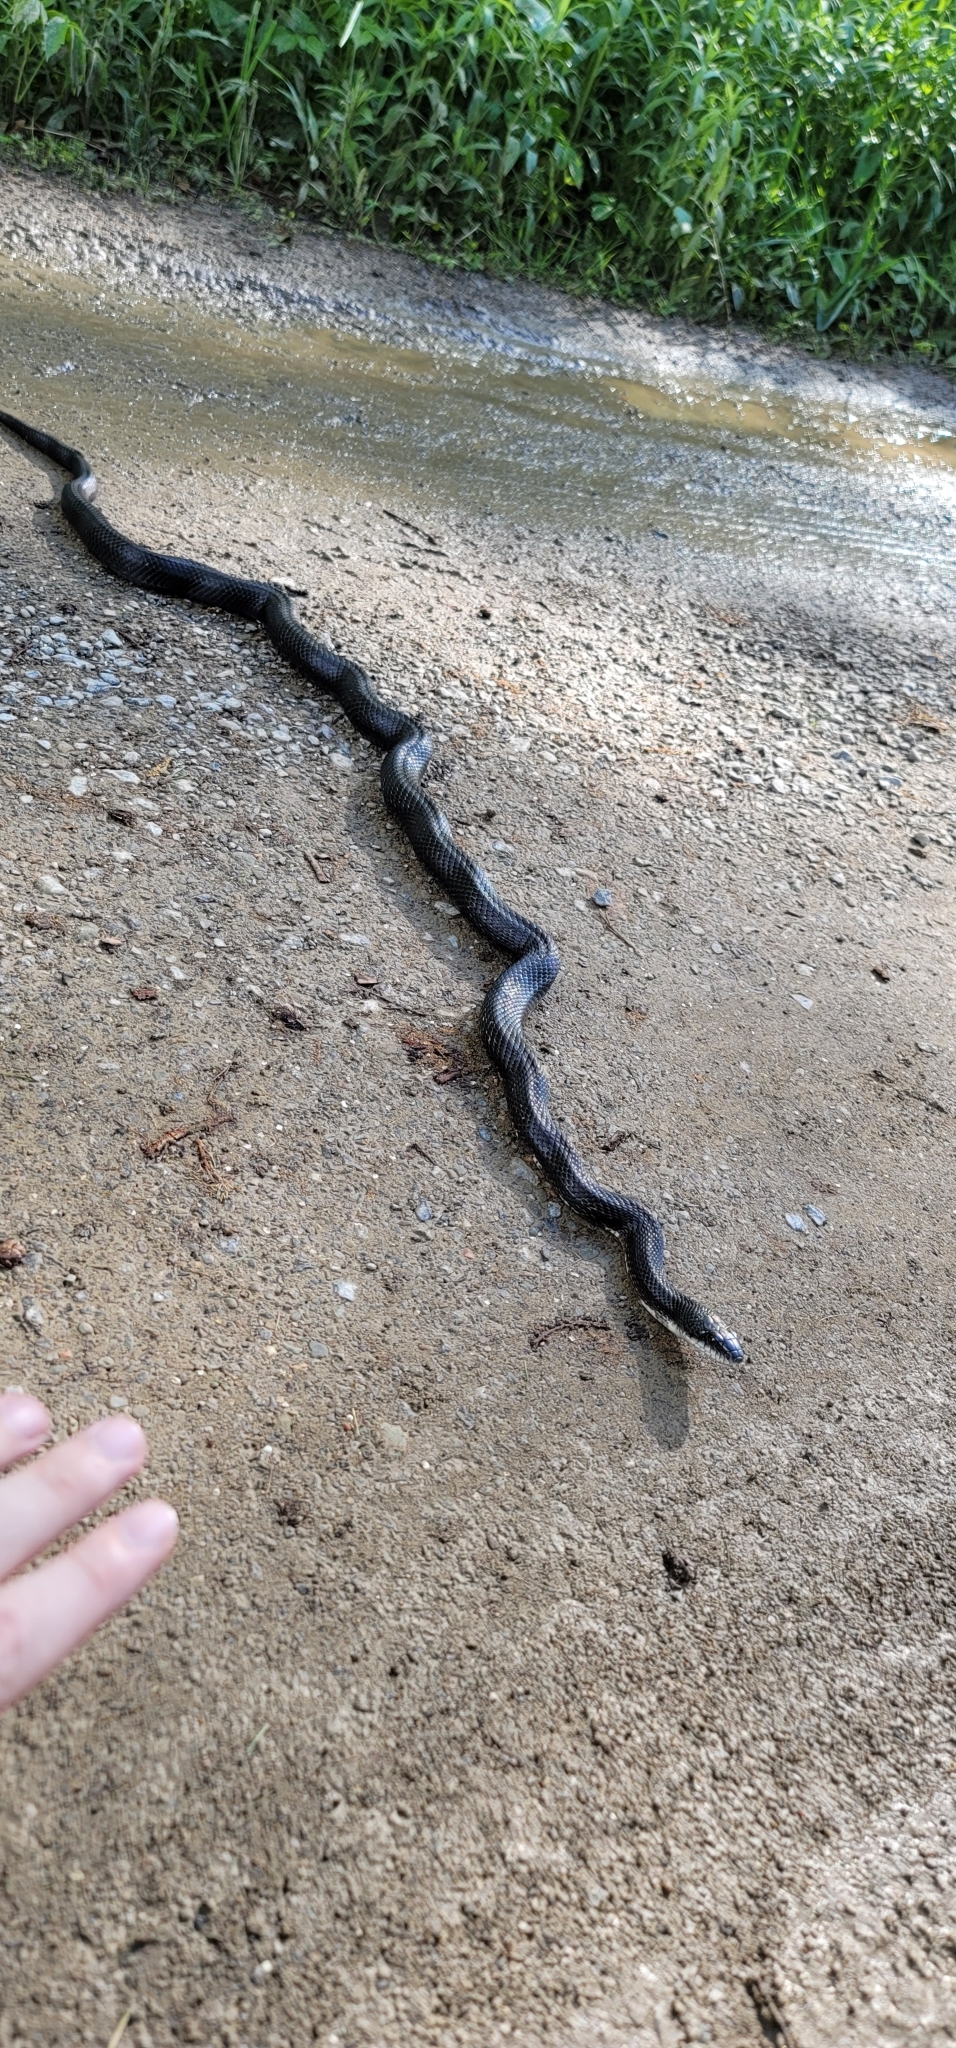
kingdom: Animalia
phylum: Chordata
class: Squamata
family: Colubridae
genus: Pantherophis
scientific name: Pantherophis spiloides
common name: Gray rat snake
